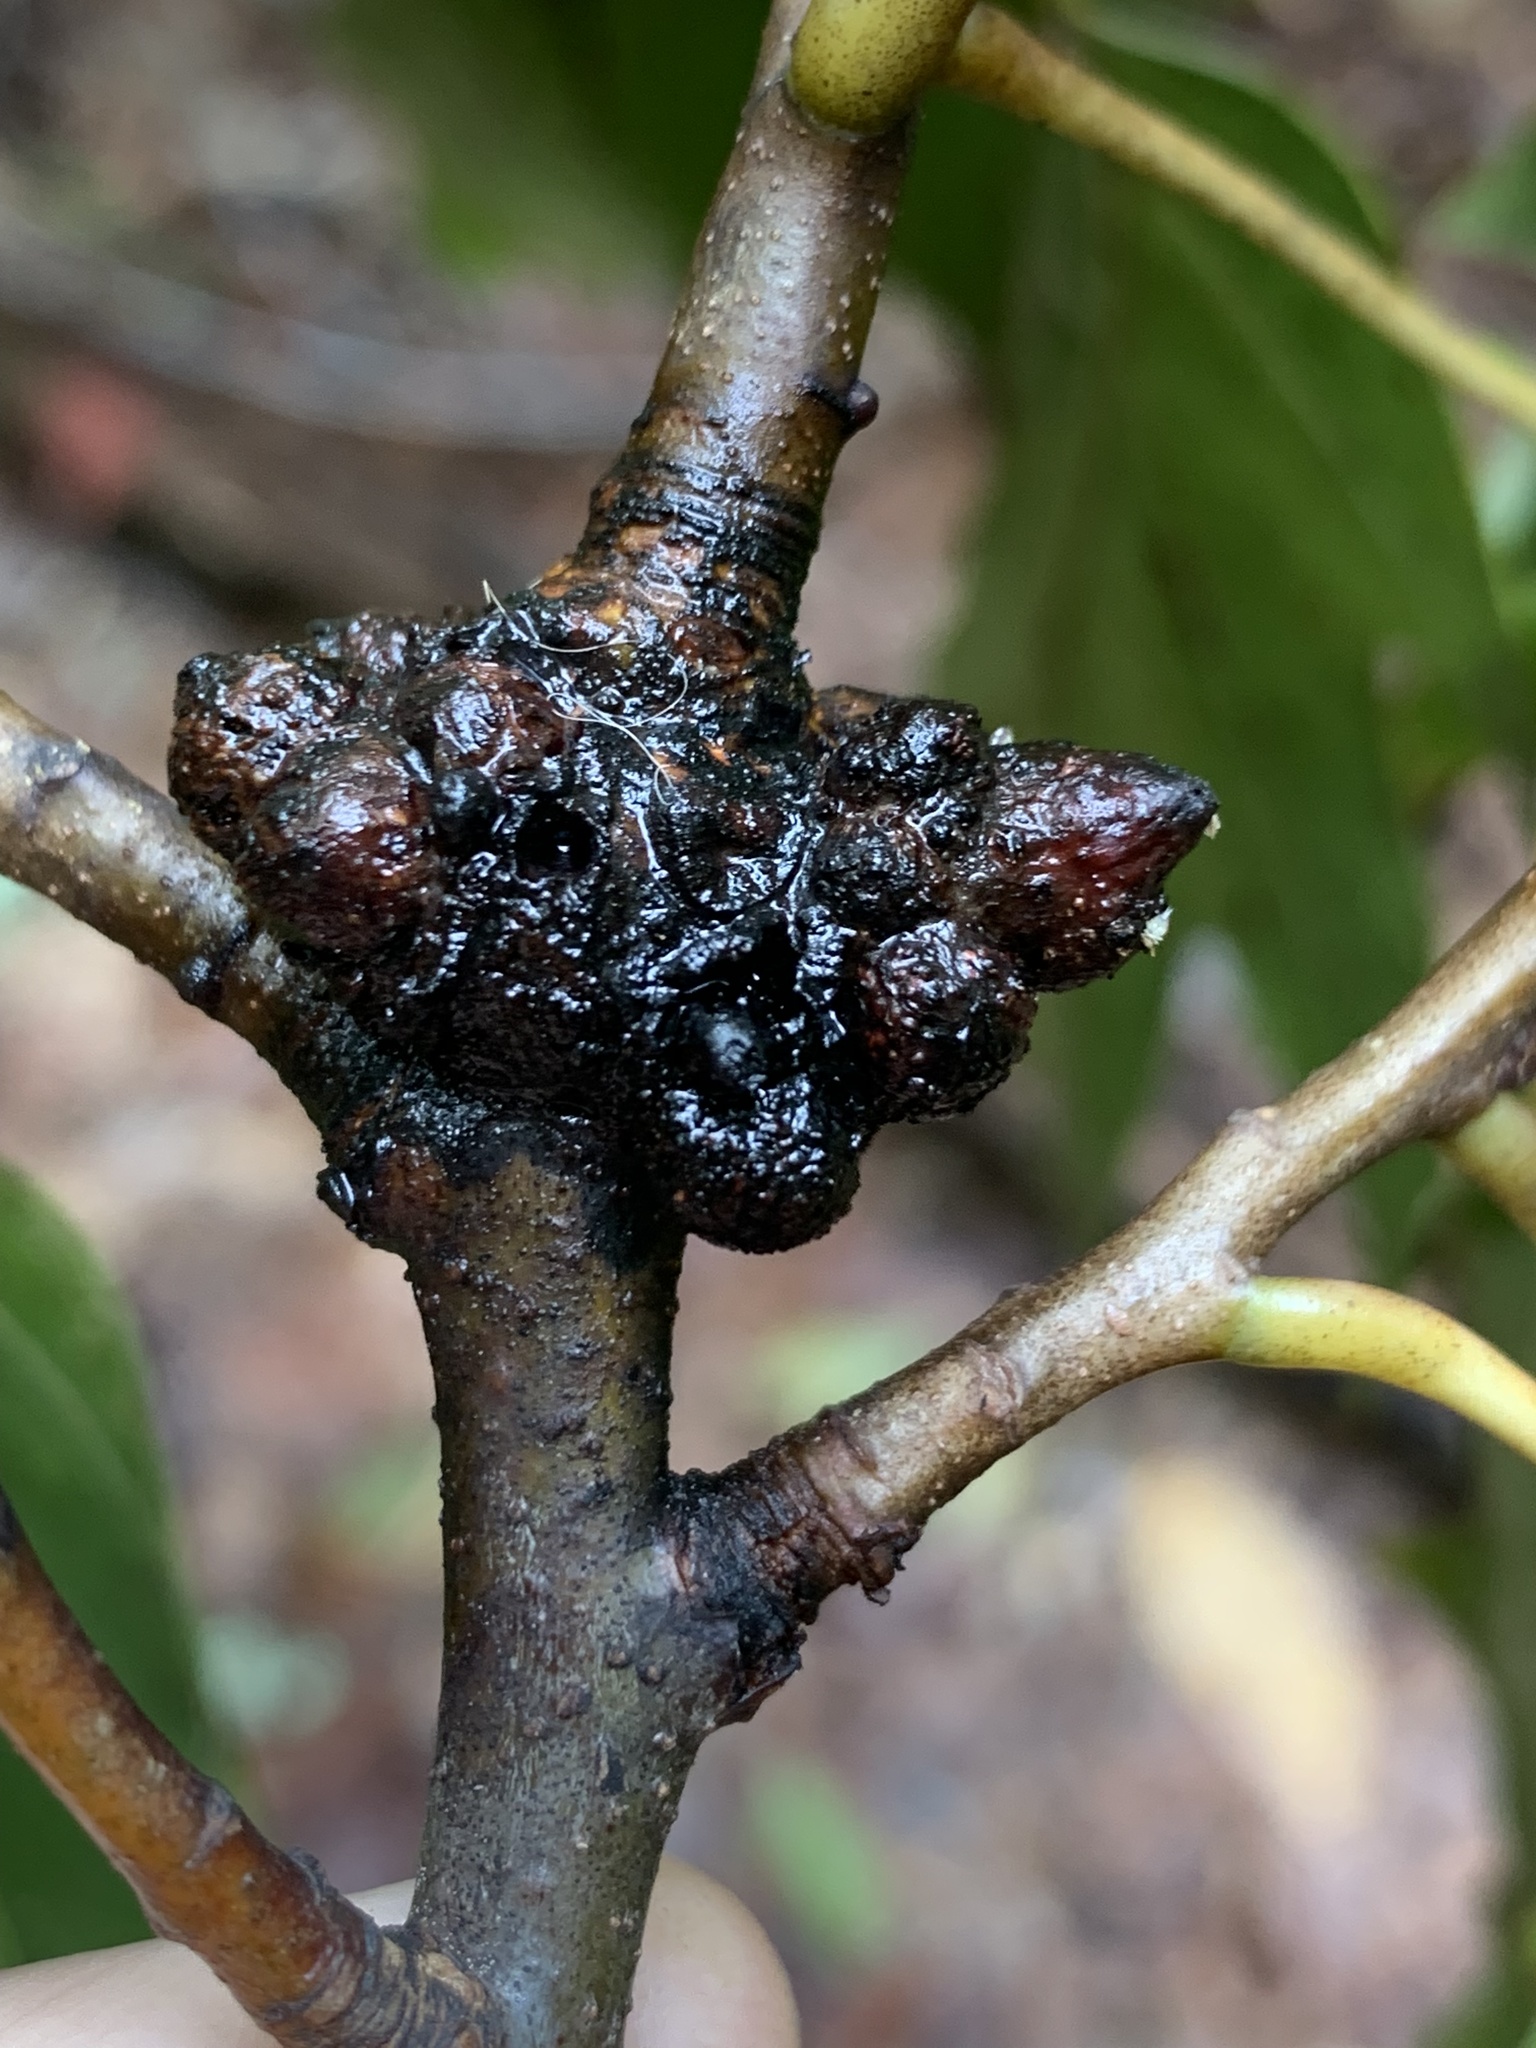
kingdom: Animalia
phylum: Arthropoda
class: Insecta
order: Hymenoptera
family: Cynipidae
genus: Callirhytis
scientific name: Callirhytis
